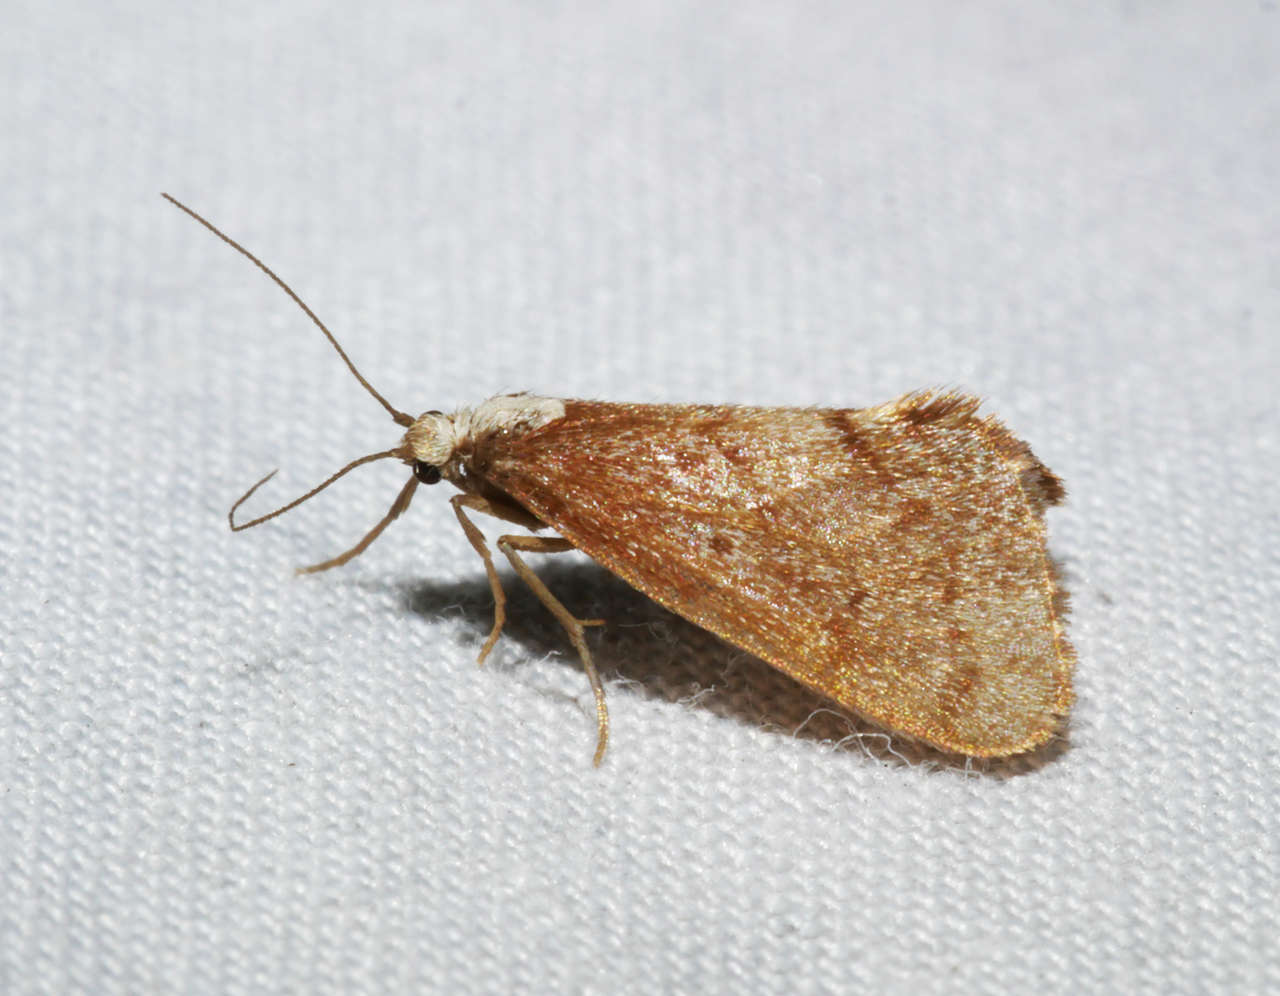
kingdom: Animalia
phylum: Arthropoda
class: Insecta
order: Lepidoptera
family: Erebidae
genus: Philenora
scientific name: Philenora omophanes
